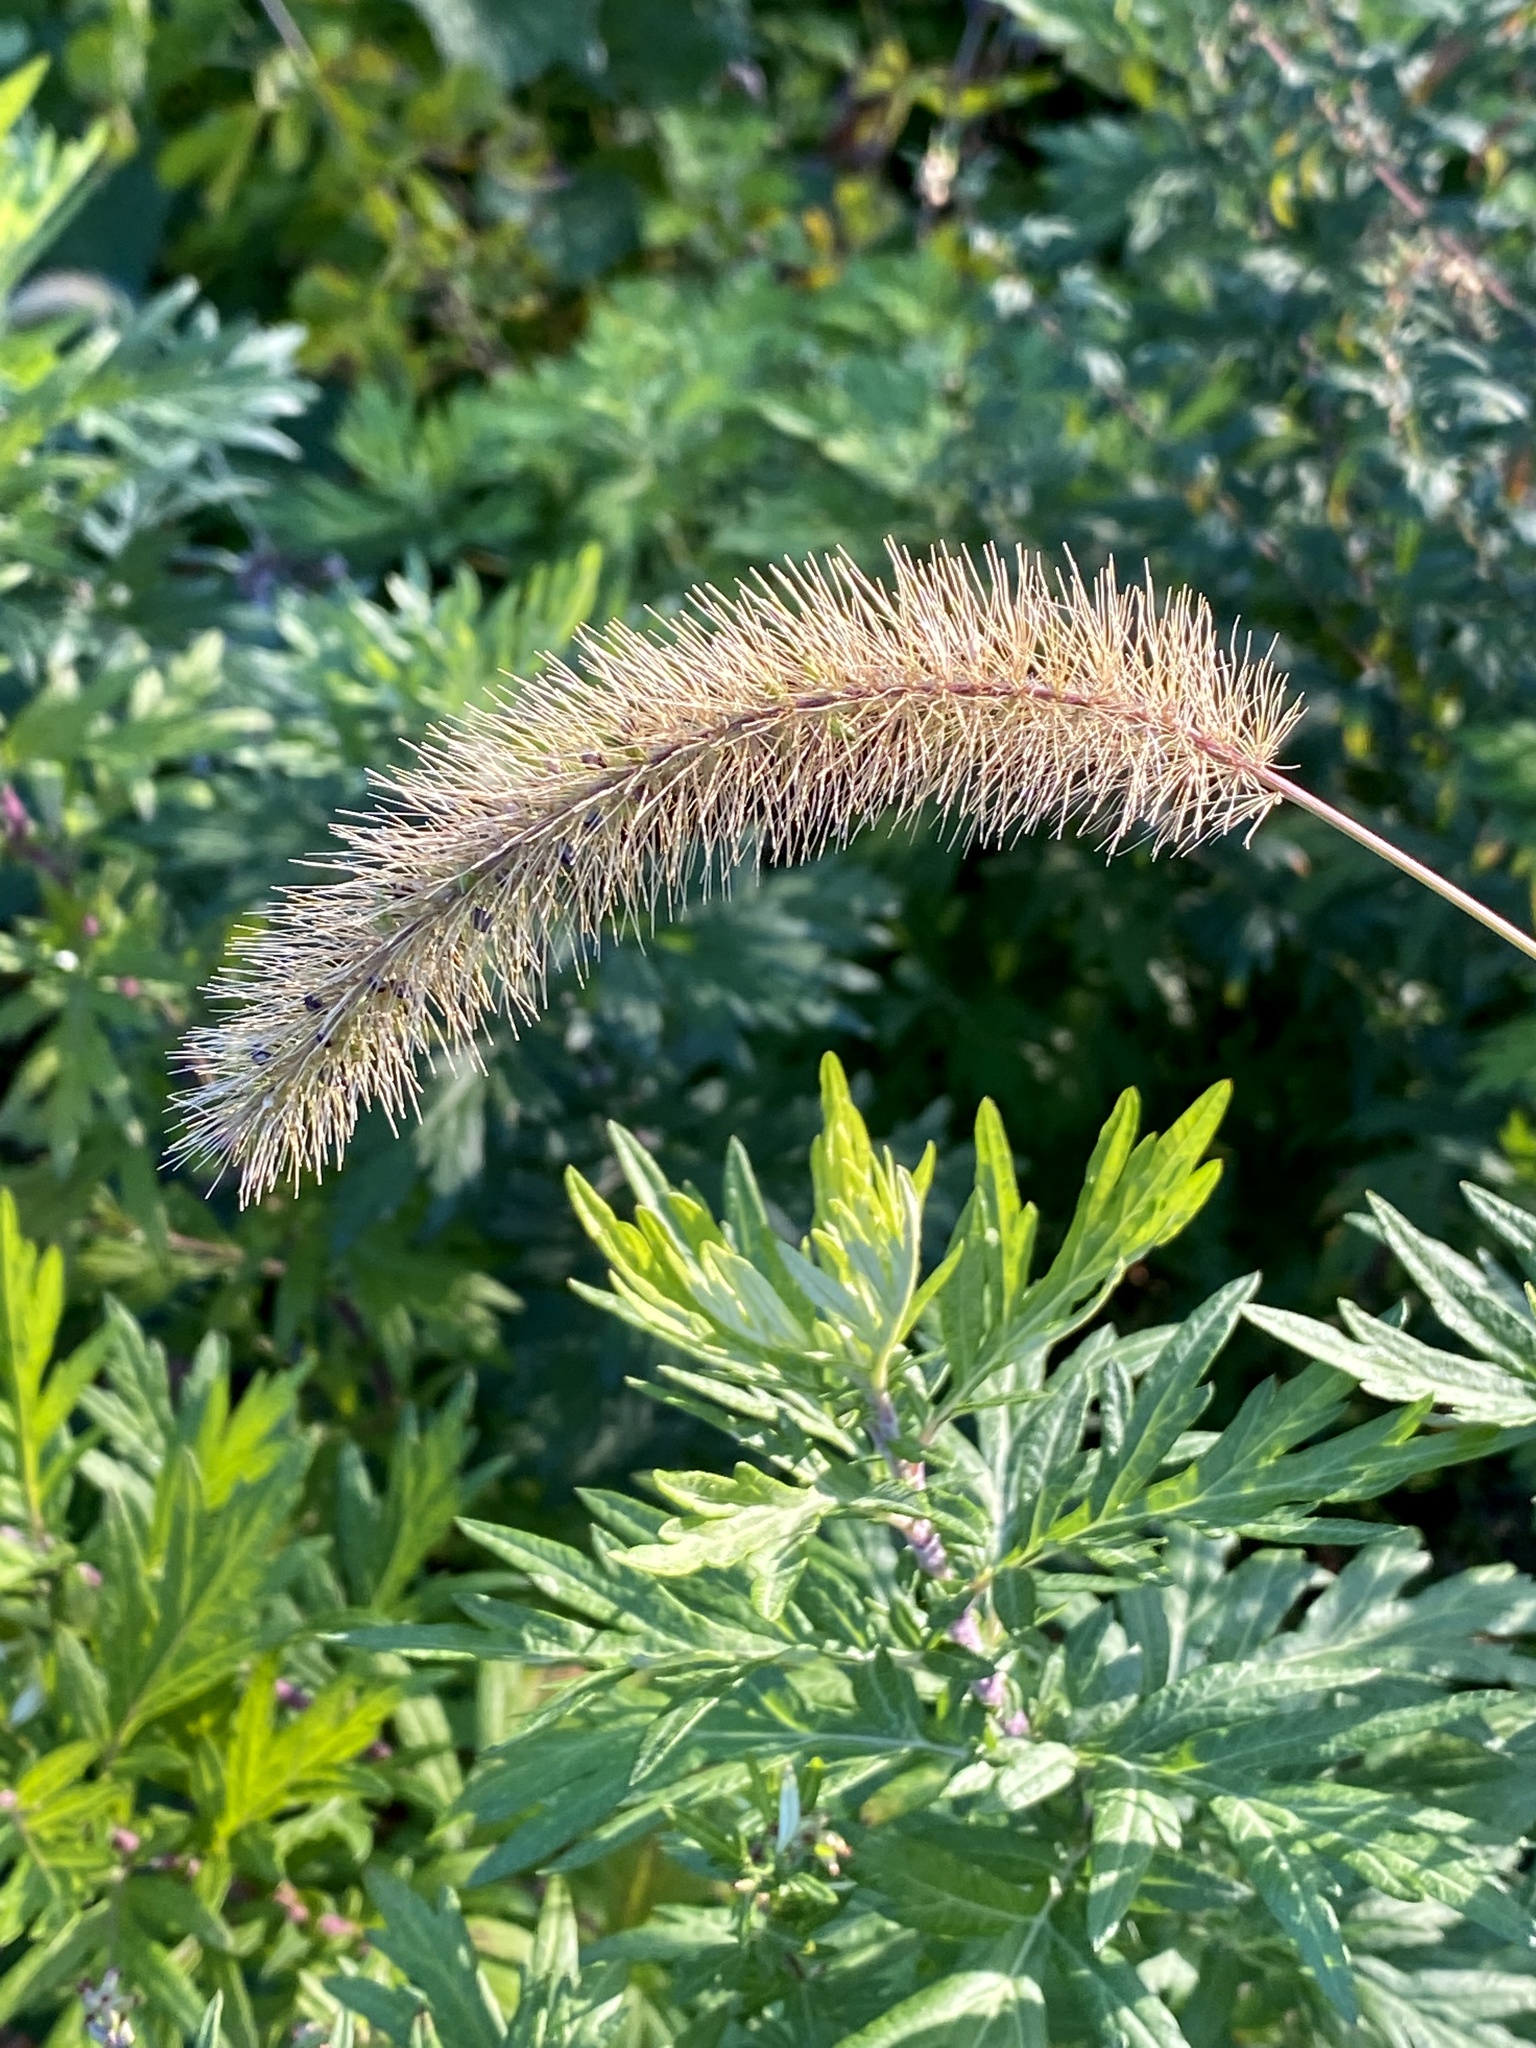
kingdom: Plantae
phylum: Tracheophyta
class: Liliopsida
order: Poales
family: Poaceae
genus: Setaria
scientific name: Setaria faberi
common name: Nodding bristle-grass
